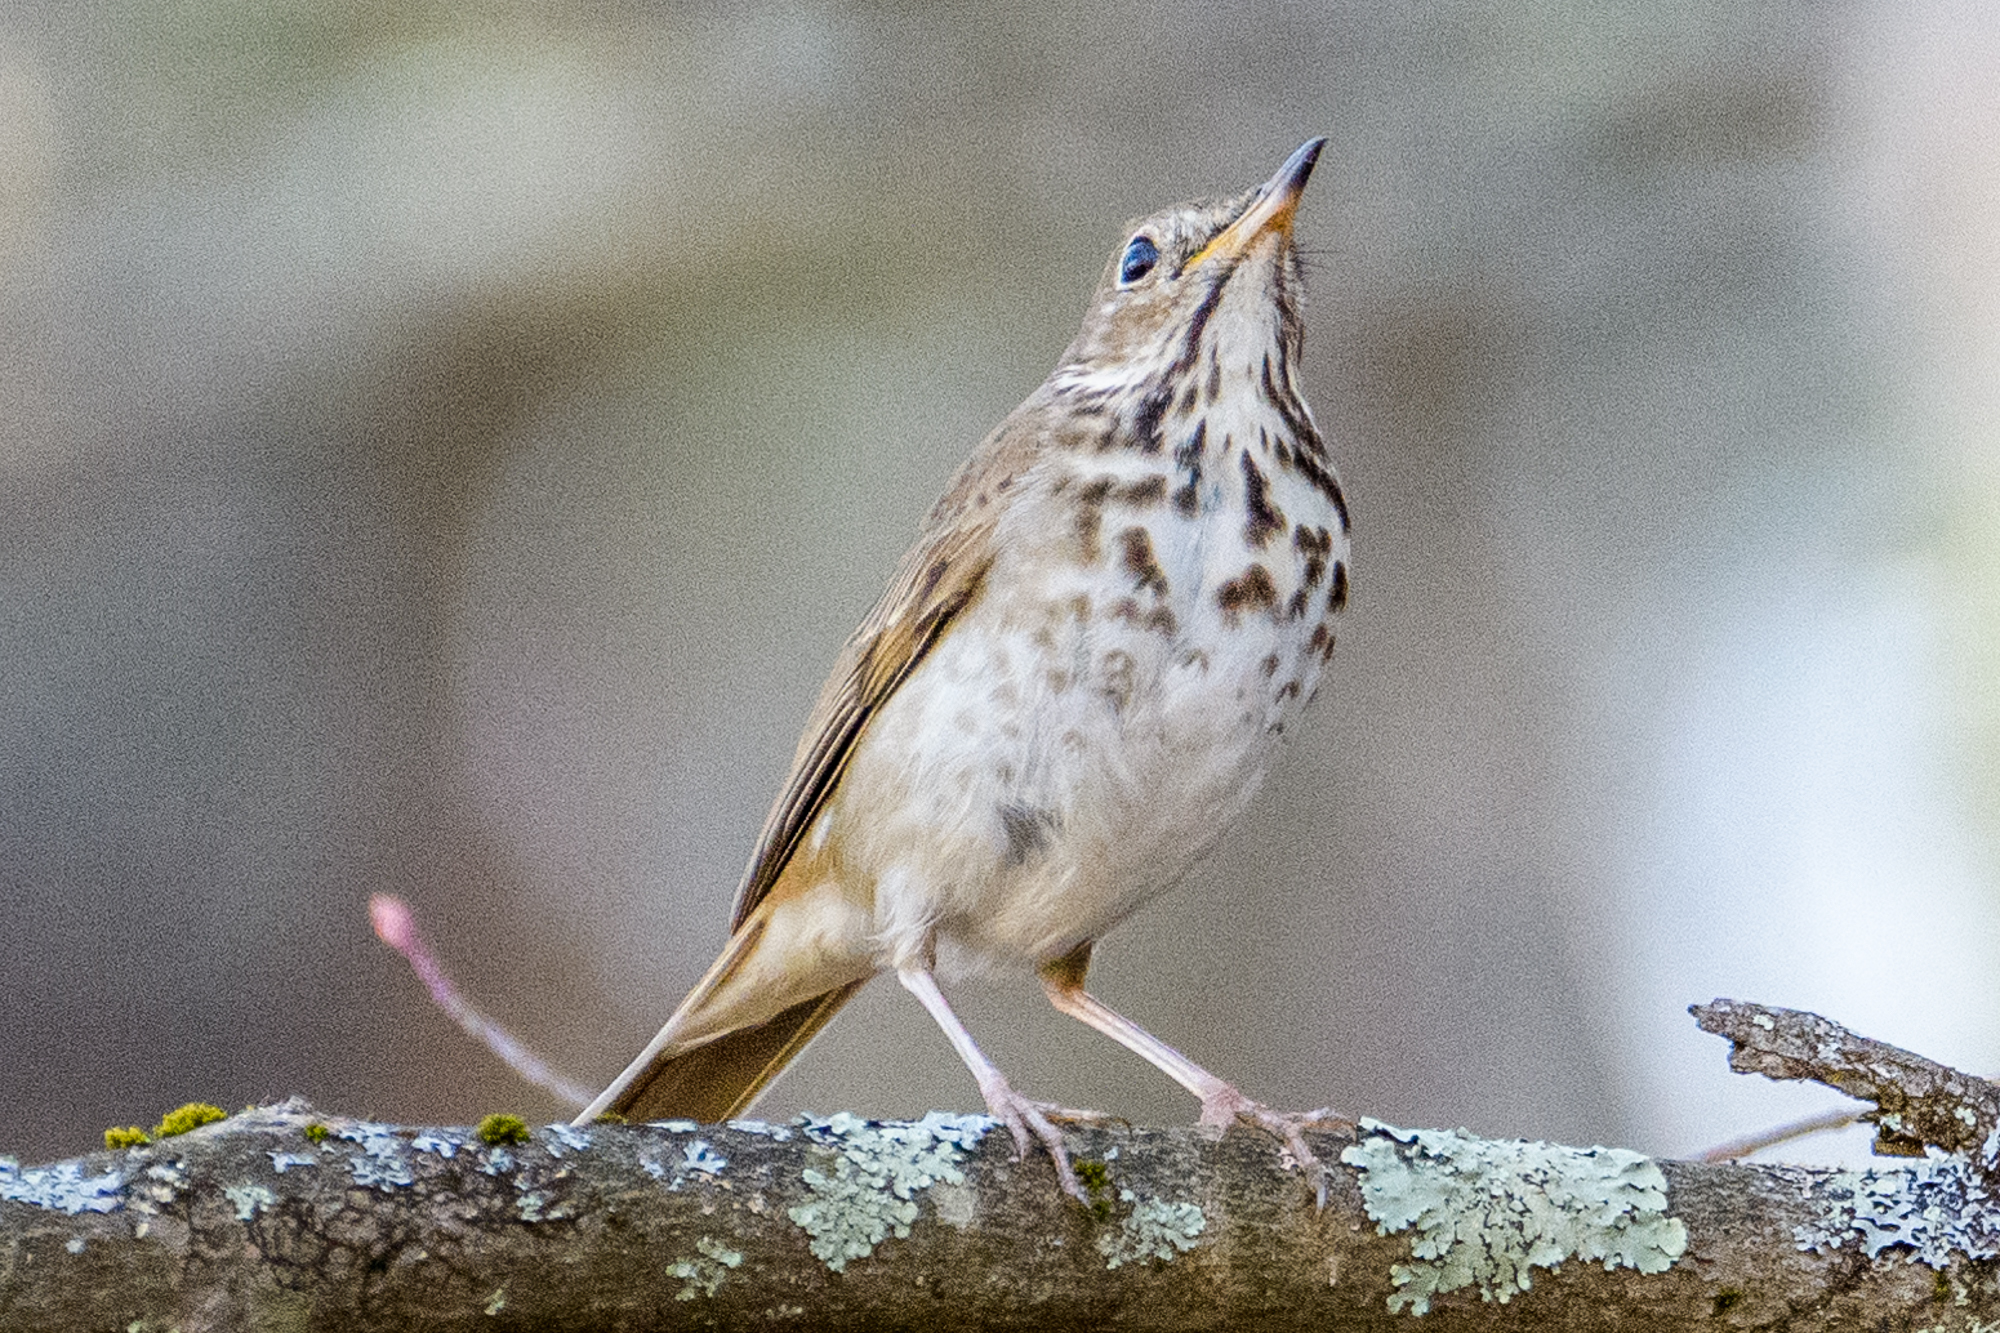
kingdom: Animalia
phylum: Chordata
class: Aves
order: Passeriformes
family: Turdidae
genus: Catharus
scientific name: Catharus guttatus
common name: Hermit thrush
